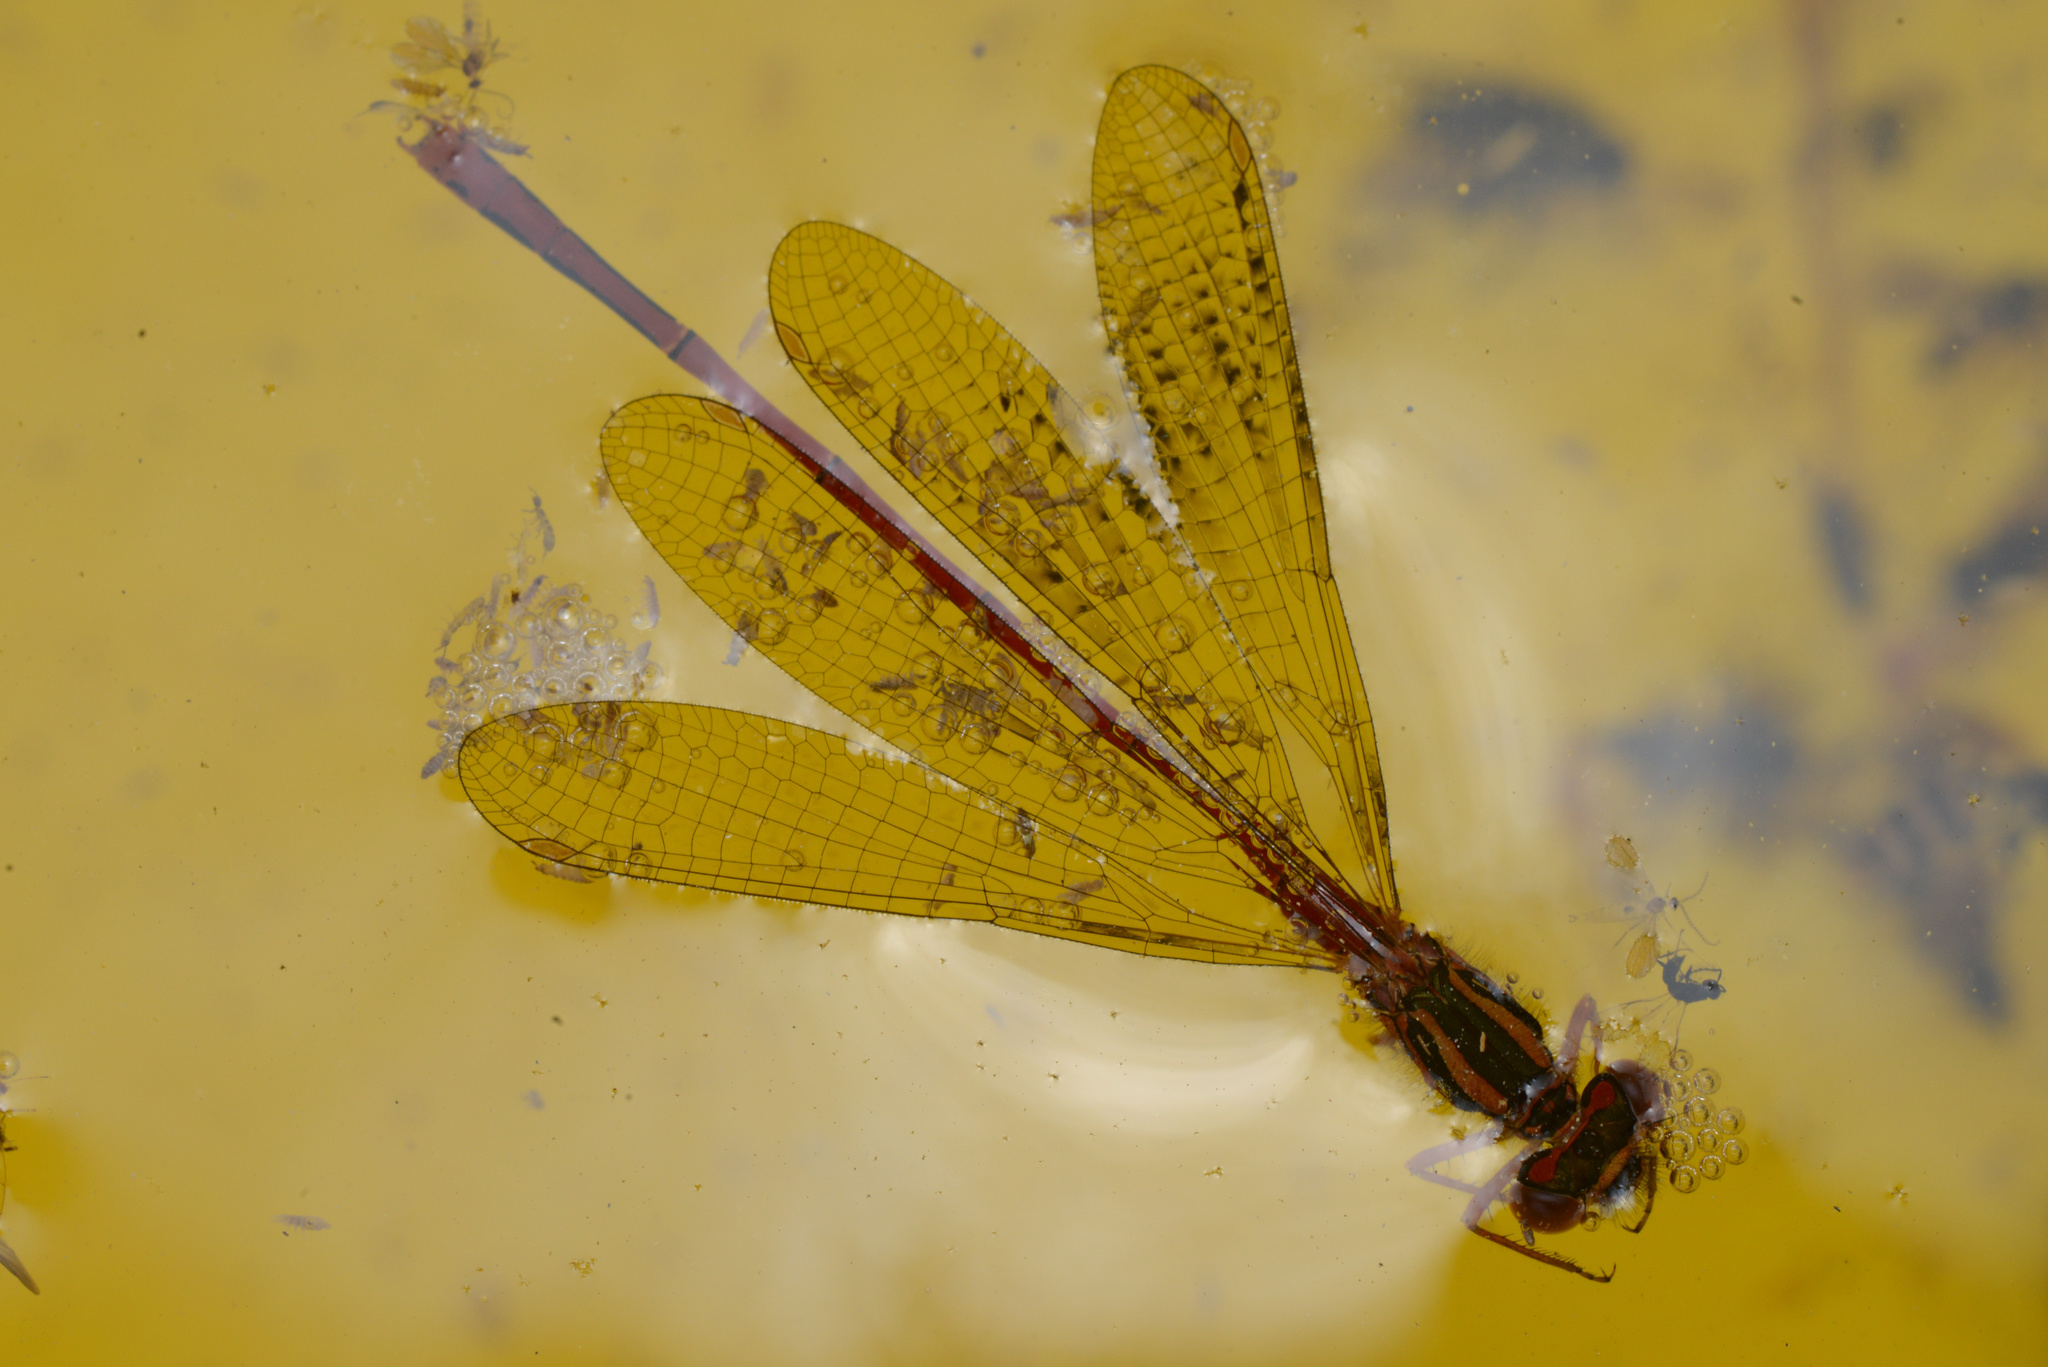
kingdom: Animalia
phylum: Arthropoda
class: Insecta
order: Odonata
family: Coenagrionidae
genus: Xanthocnemis
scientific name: Xanthocnemis zealandica
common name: Common redcoat damselfly
